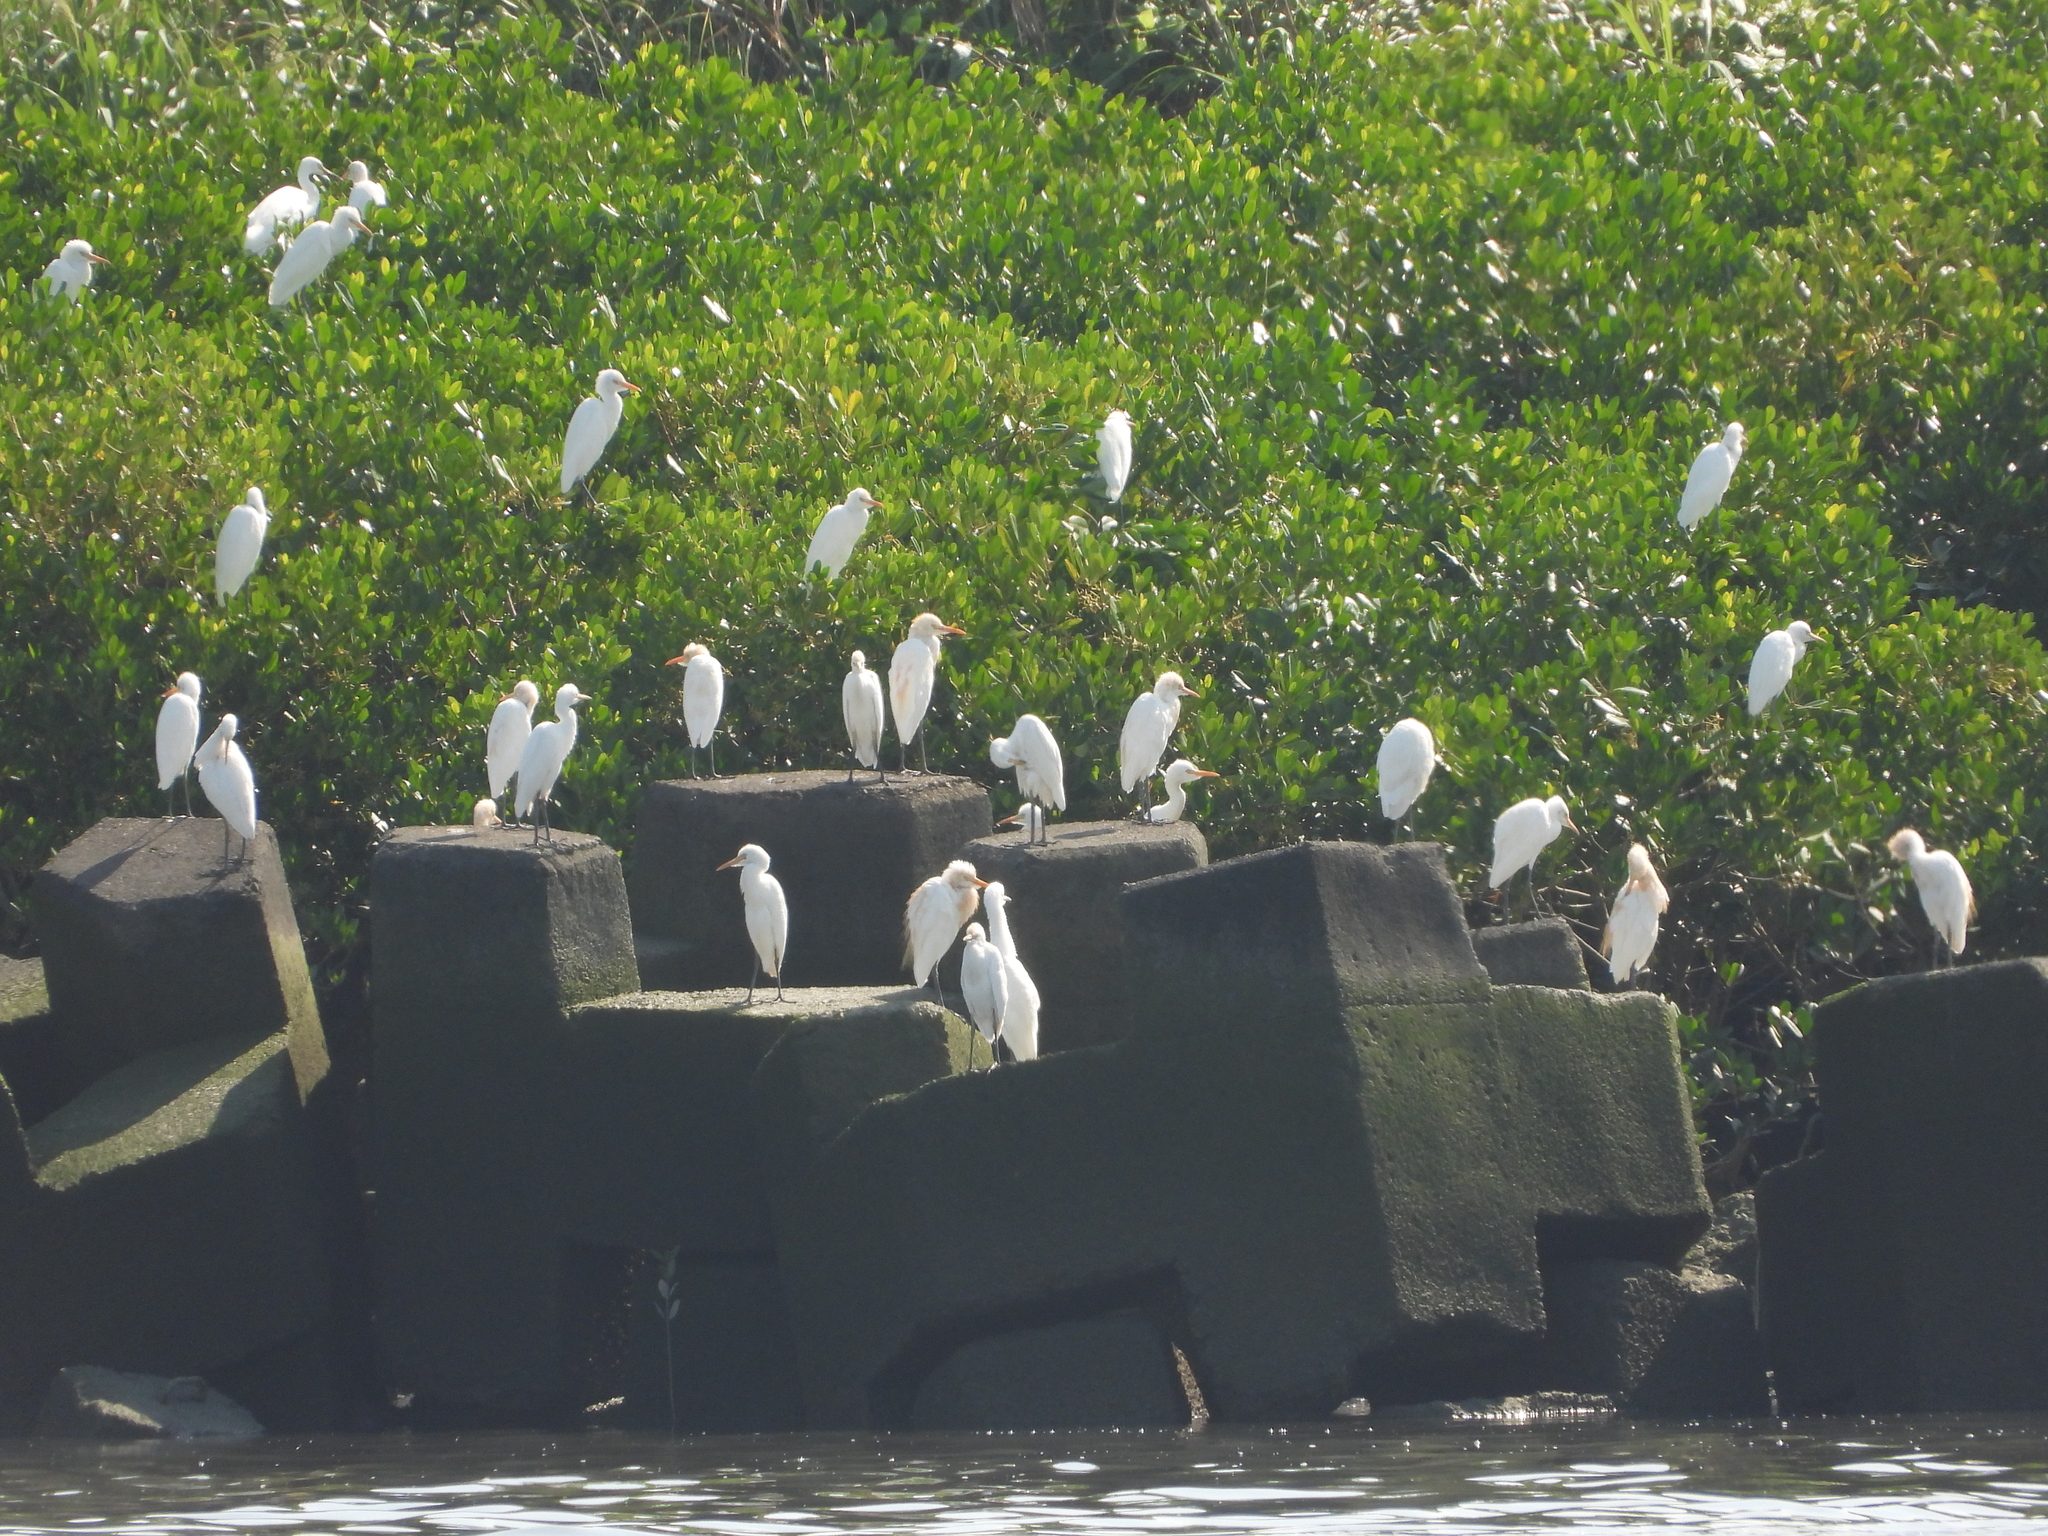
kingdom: Animalia
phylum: Chordata
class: Aves
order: Pelecaniformes
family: Ardeidae
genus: Bubulcus
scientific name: Bubulcus coromandus
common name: Eastern cattle egret
